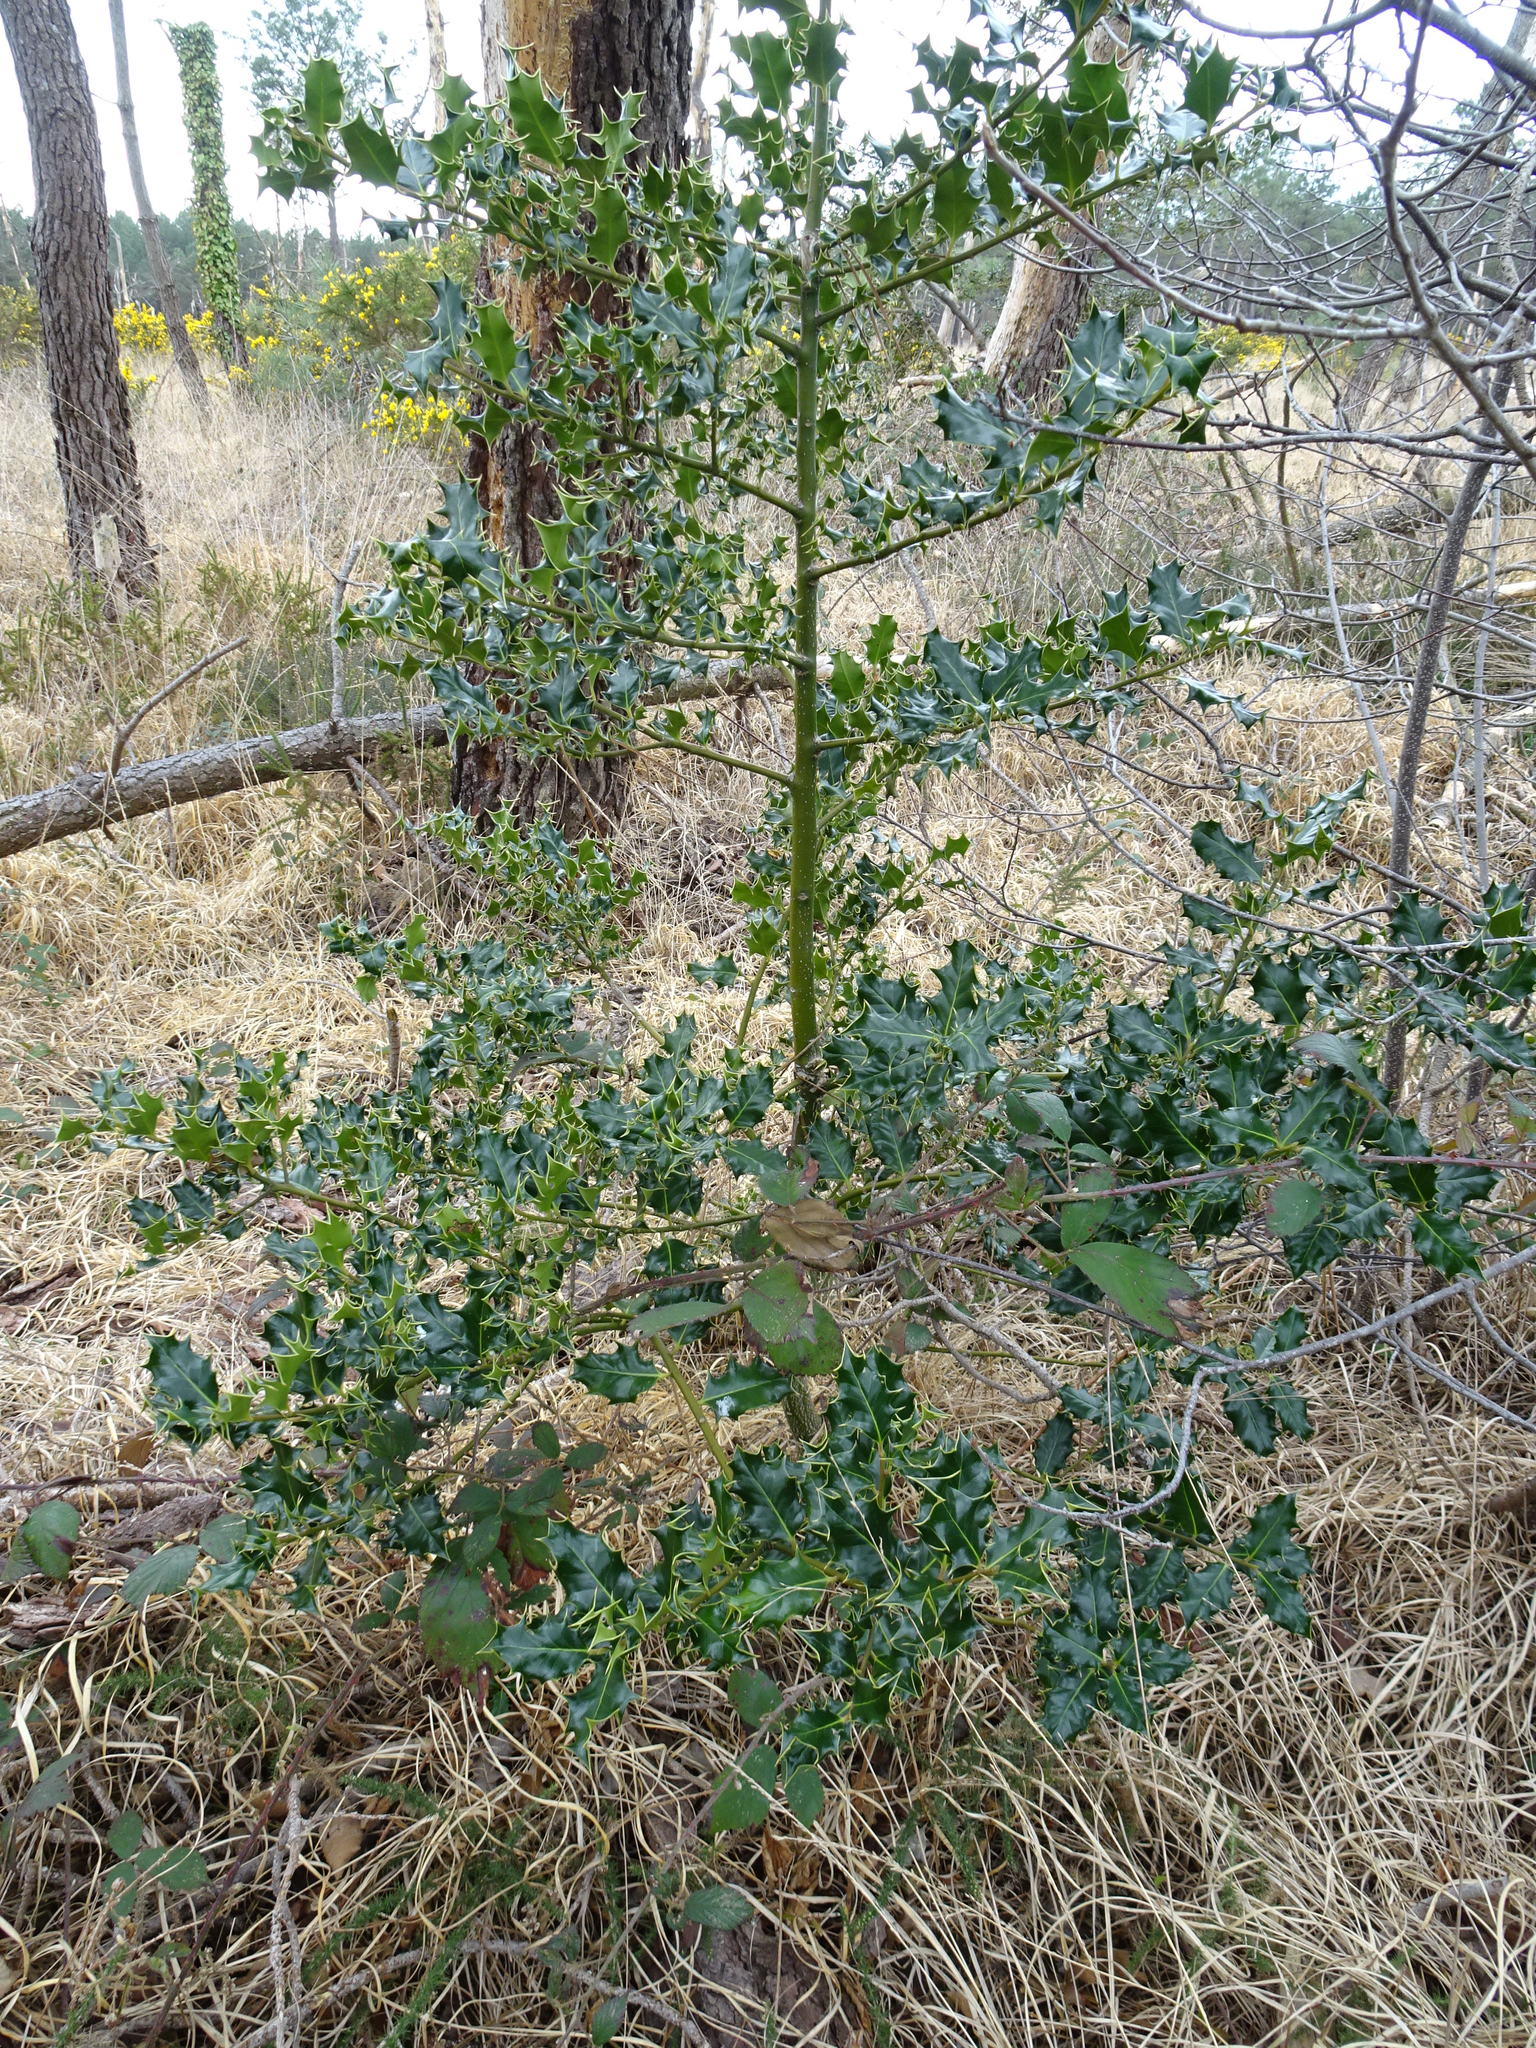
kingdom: Plantae
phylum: Tracheophyta
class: Magnoliopsida
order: Aquifoliales
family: Aquifoliaceae
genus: Ilex
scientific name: Ilex aquifolium
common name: English holly
